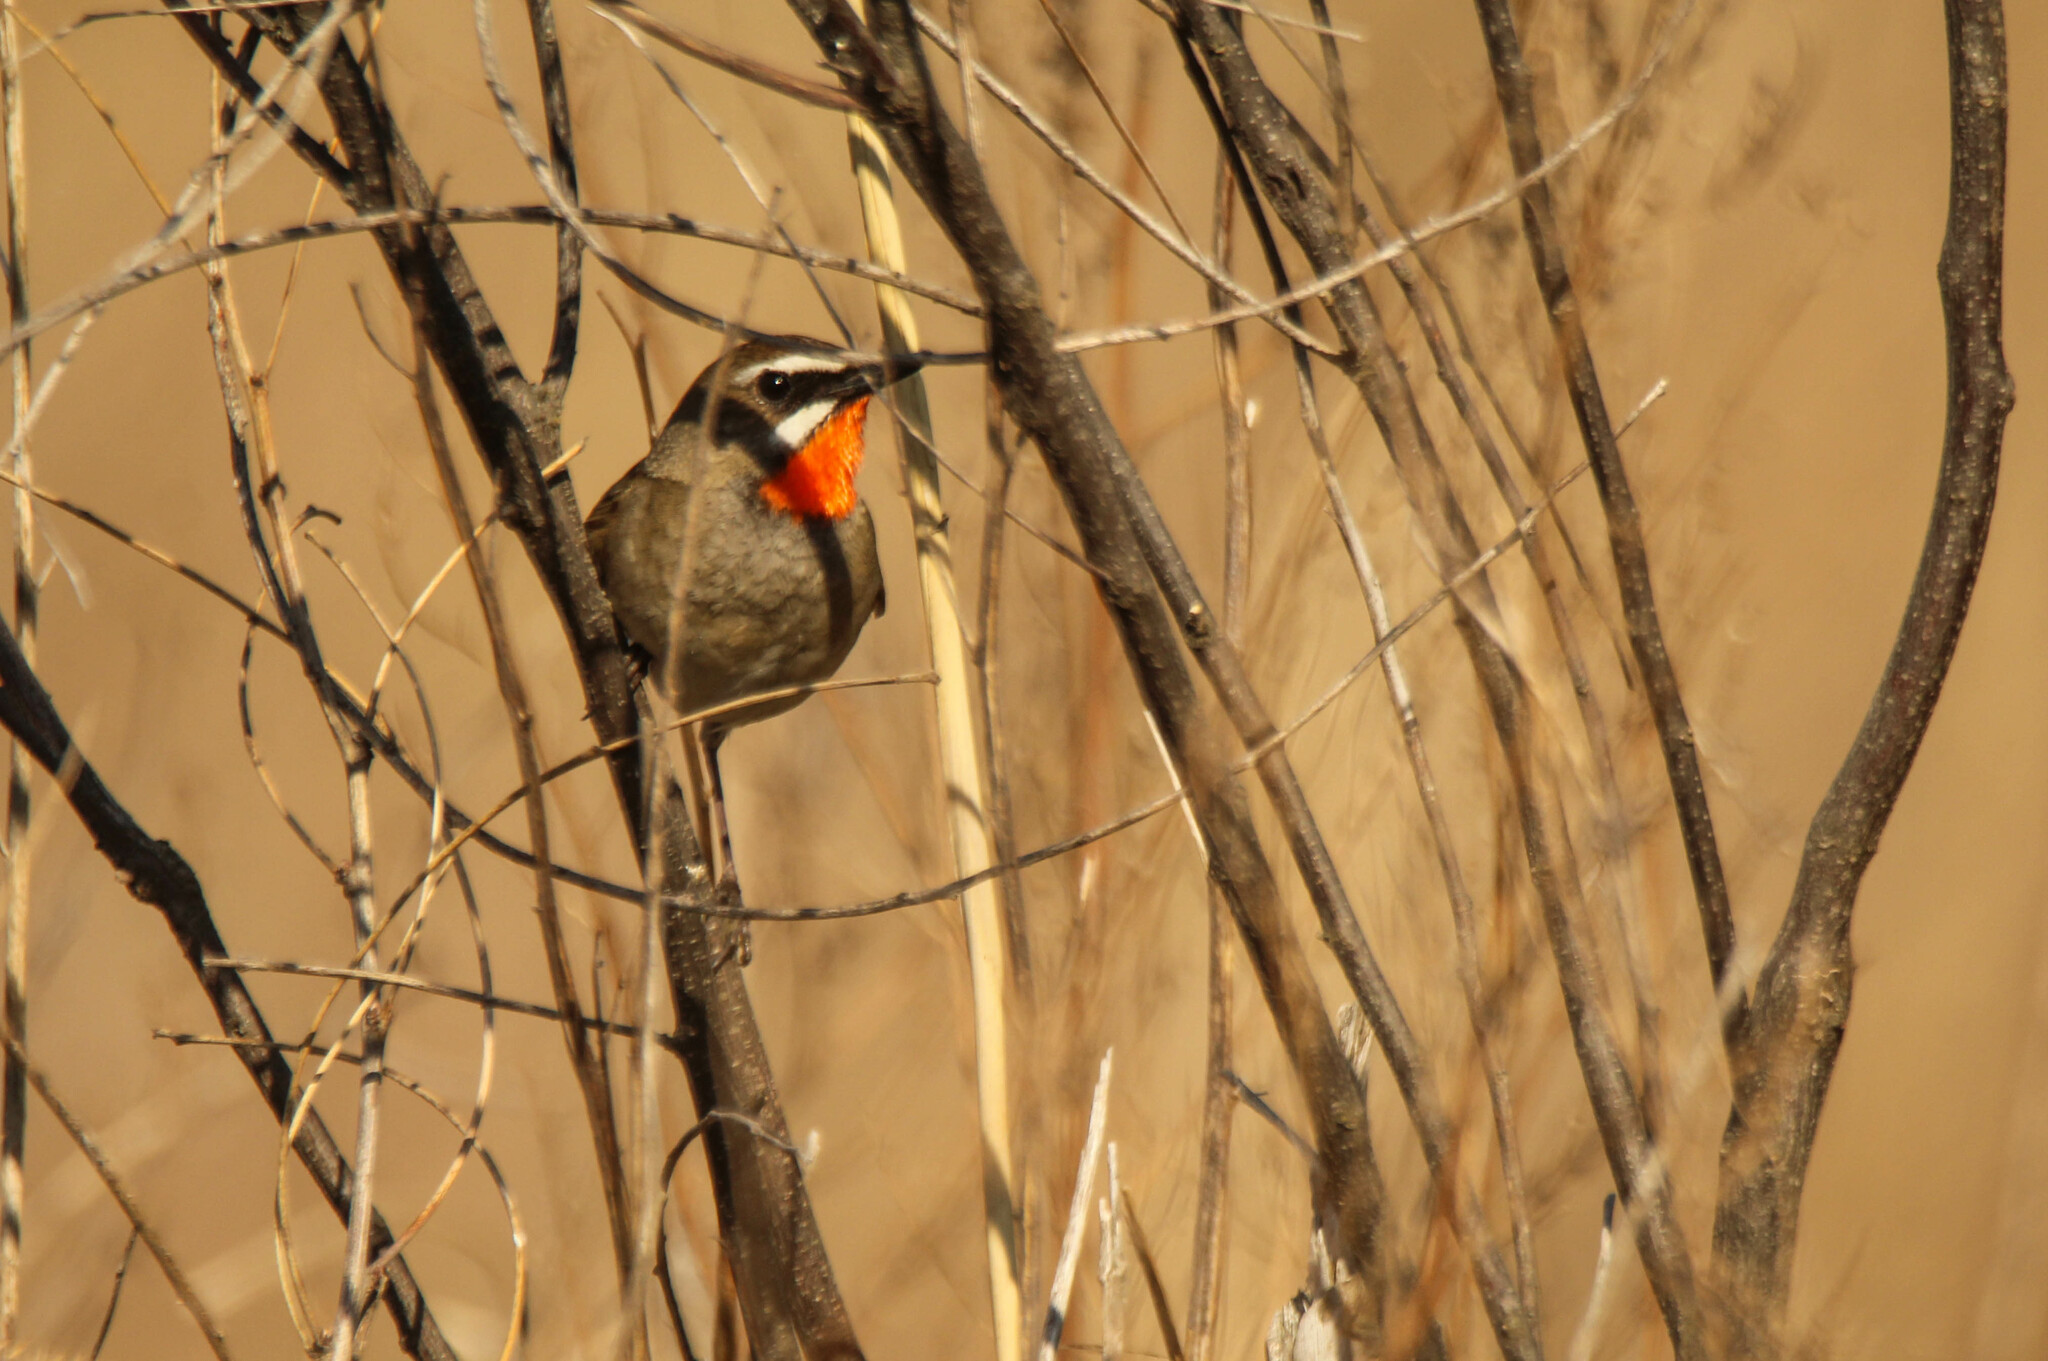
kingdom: Animalia
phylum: Chordata
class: Aves
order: Passeriformes
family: Muscicapidae
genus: Luscinia
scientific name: Luscinia calliope
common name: Siberian rubythroat
